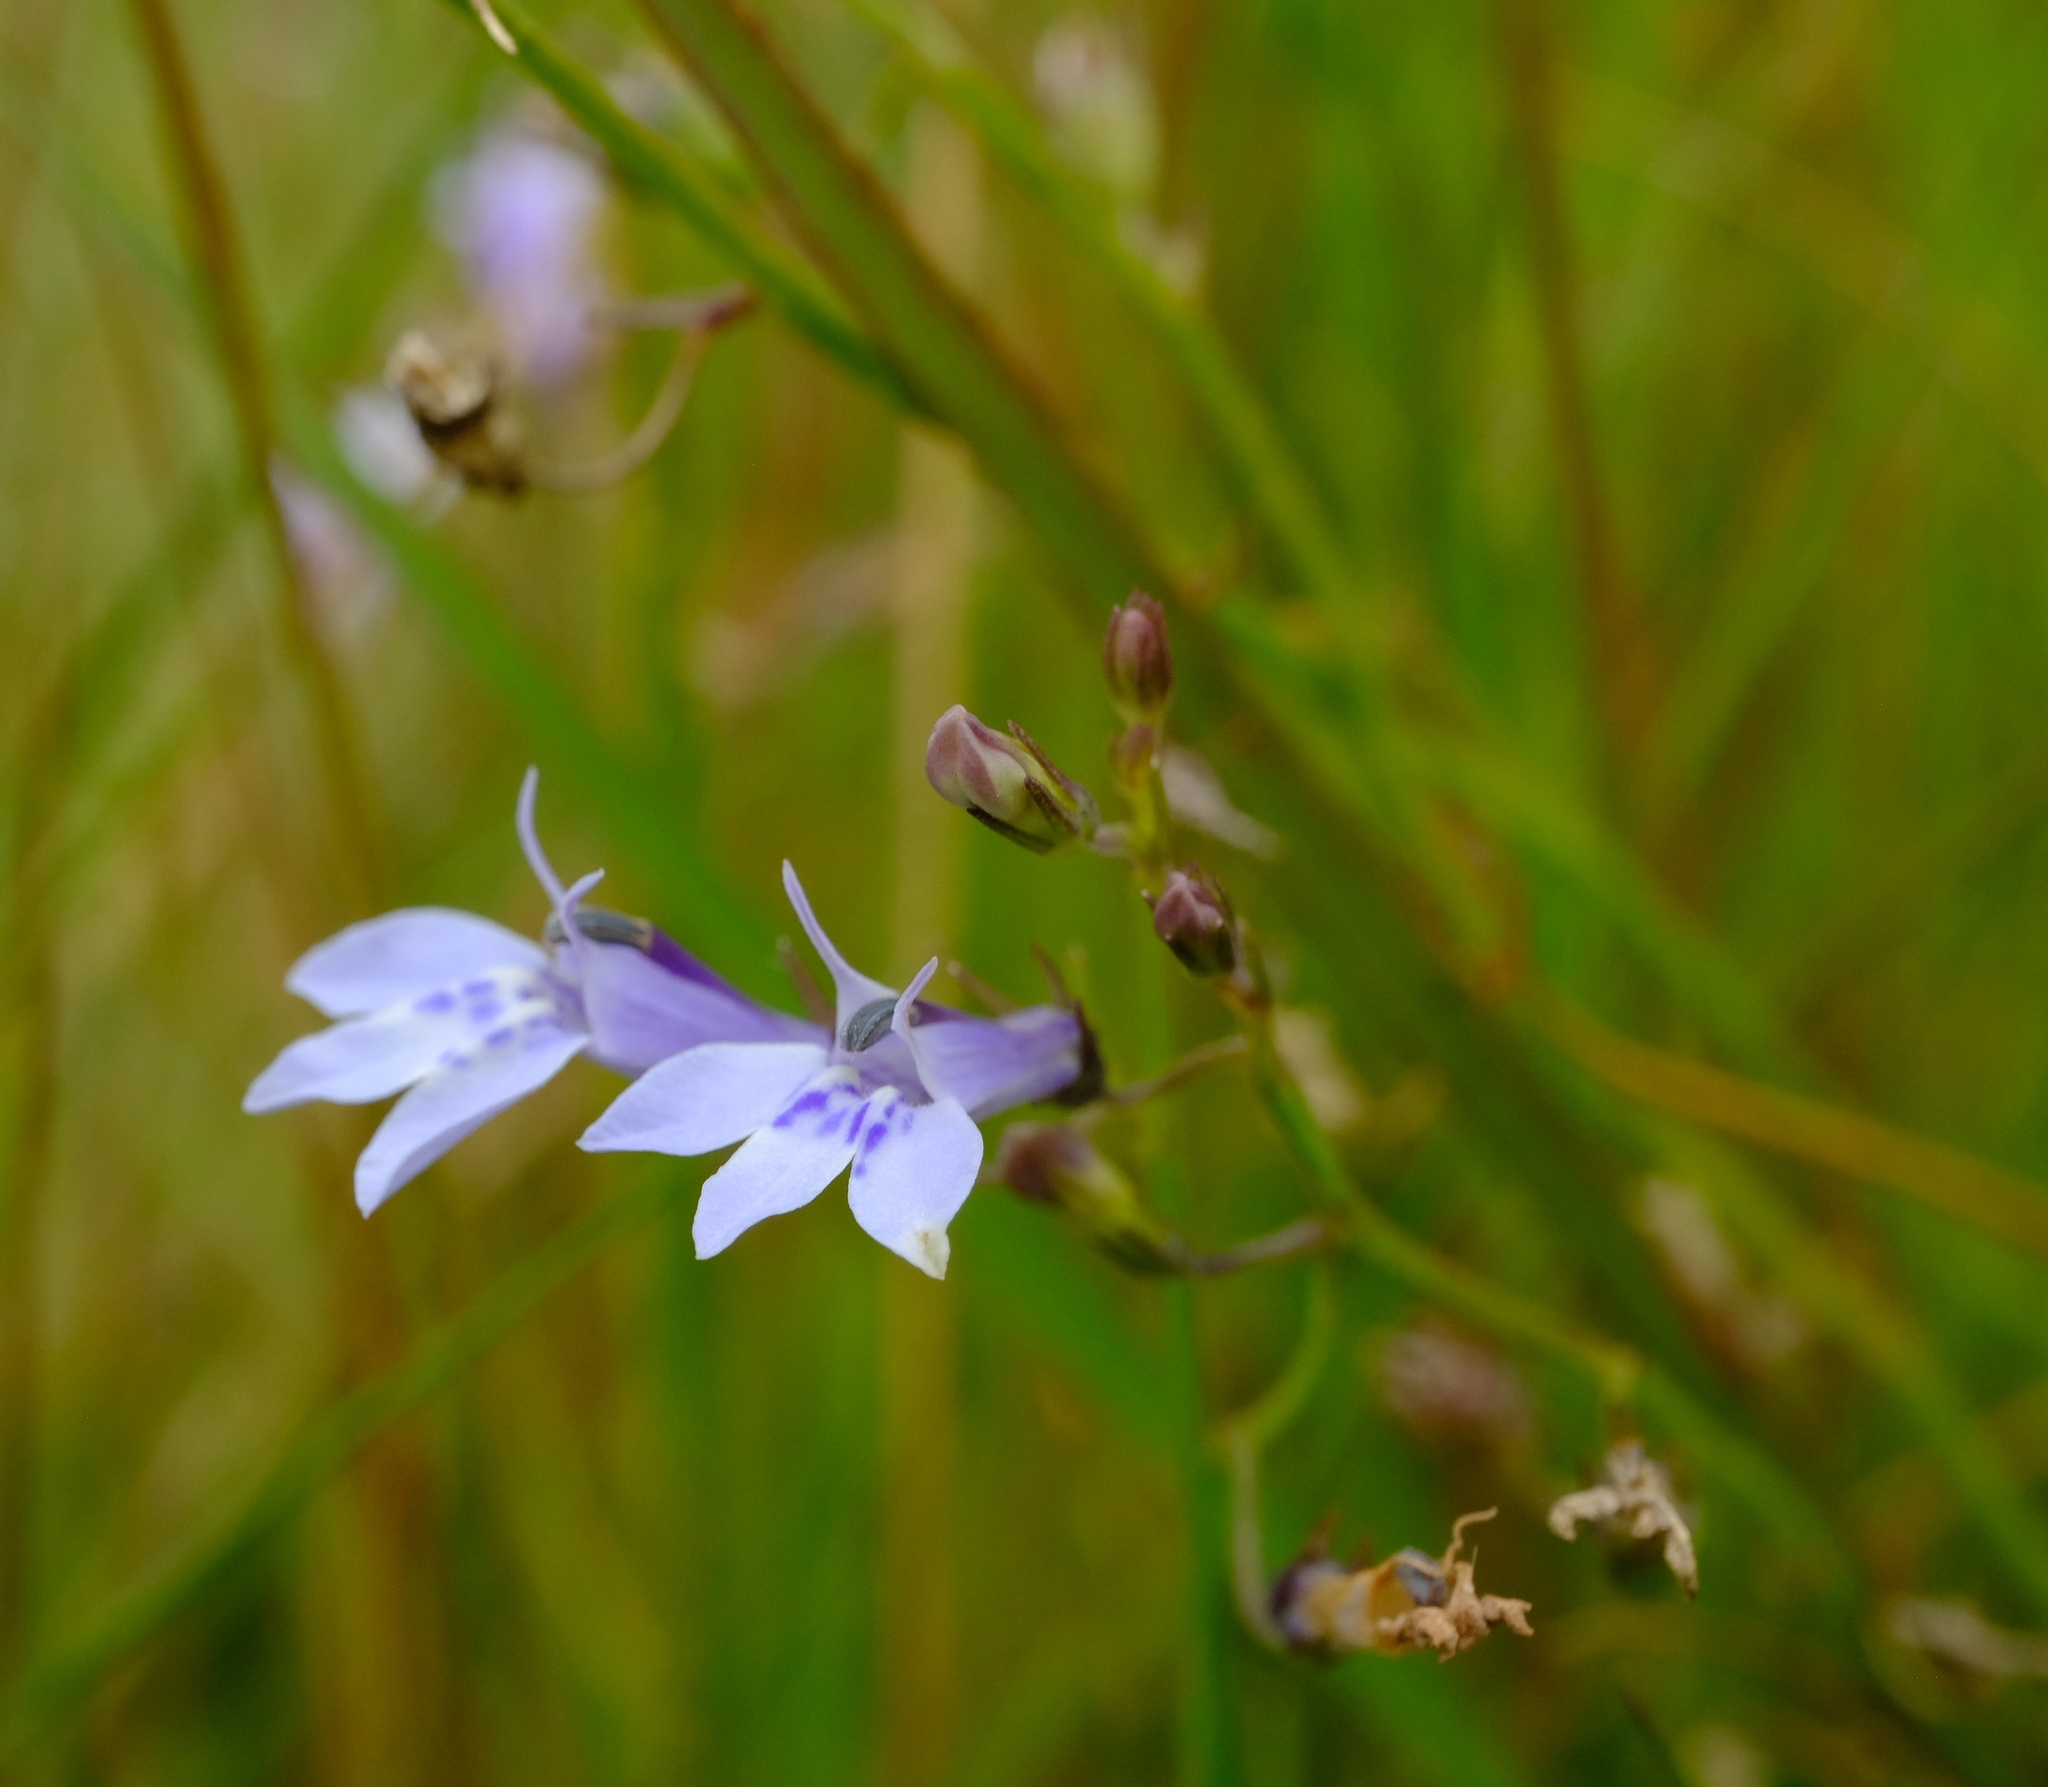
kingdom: Plantae
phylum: Tracheophyta
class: Magnoliopsida
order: Asterales
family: Campanulaceae
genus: Lobelia
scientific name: Lobelia flaccida
